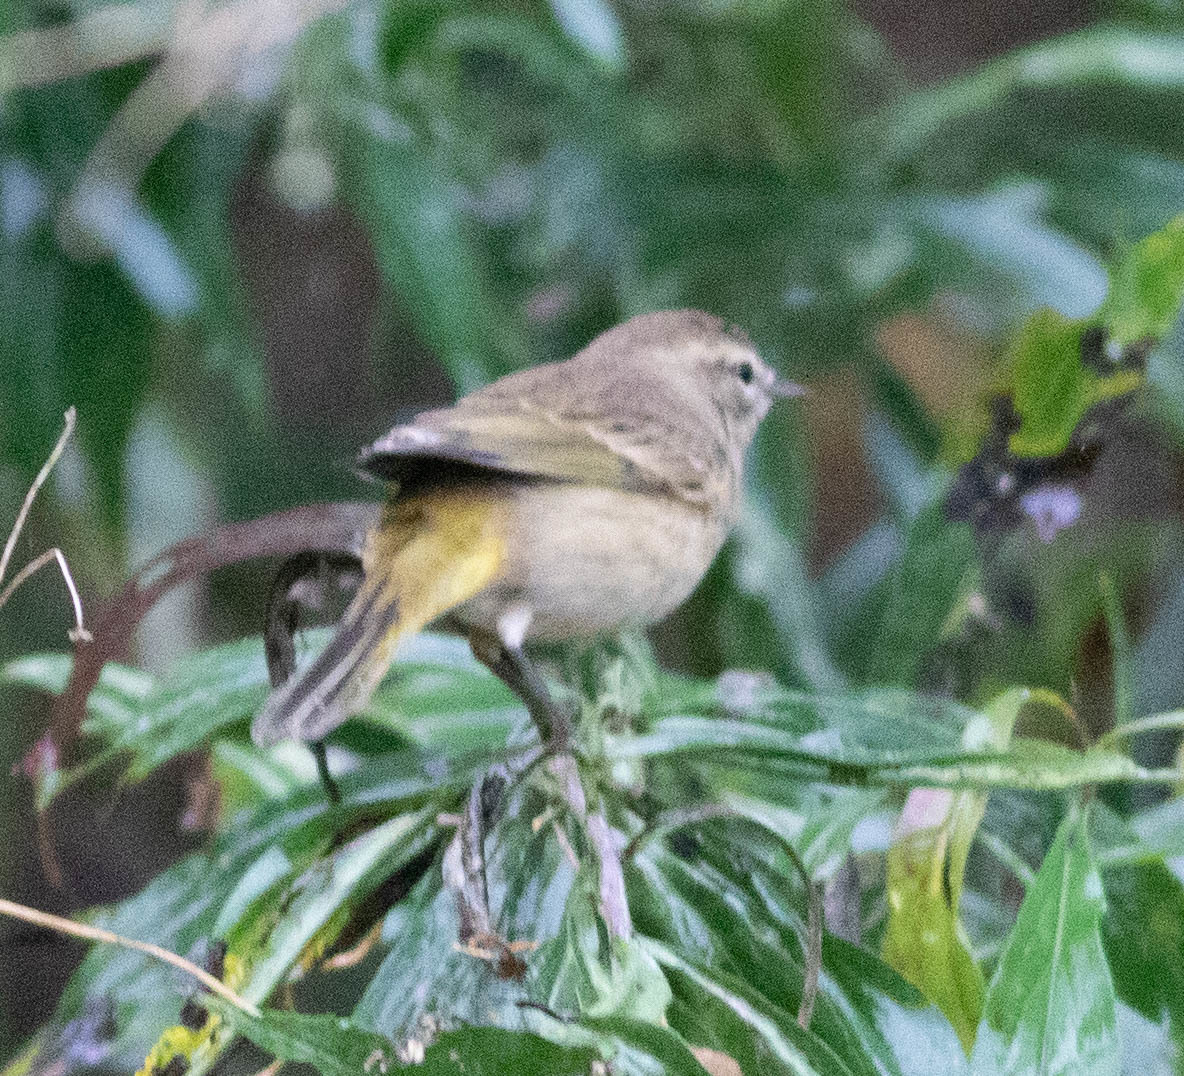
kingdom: Animalia
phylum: Chordata
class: Aves
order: Passeriformes
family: Parulidae
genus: Setophaga
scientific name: Setophaga palmarum
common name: Palm warbler
